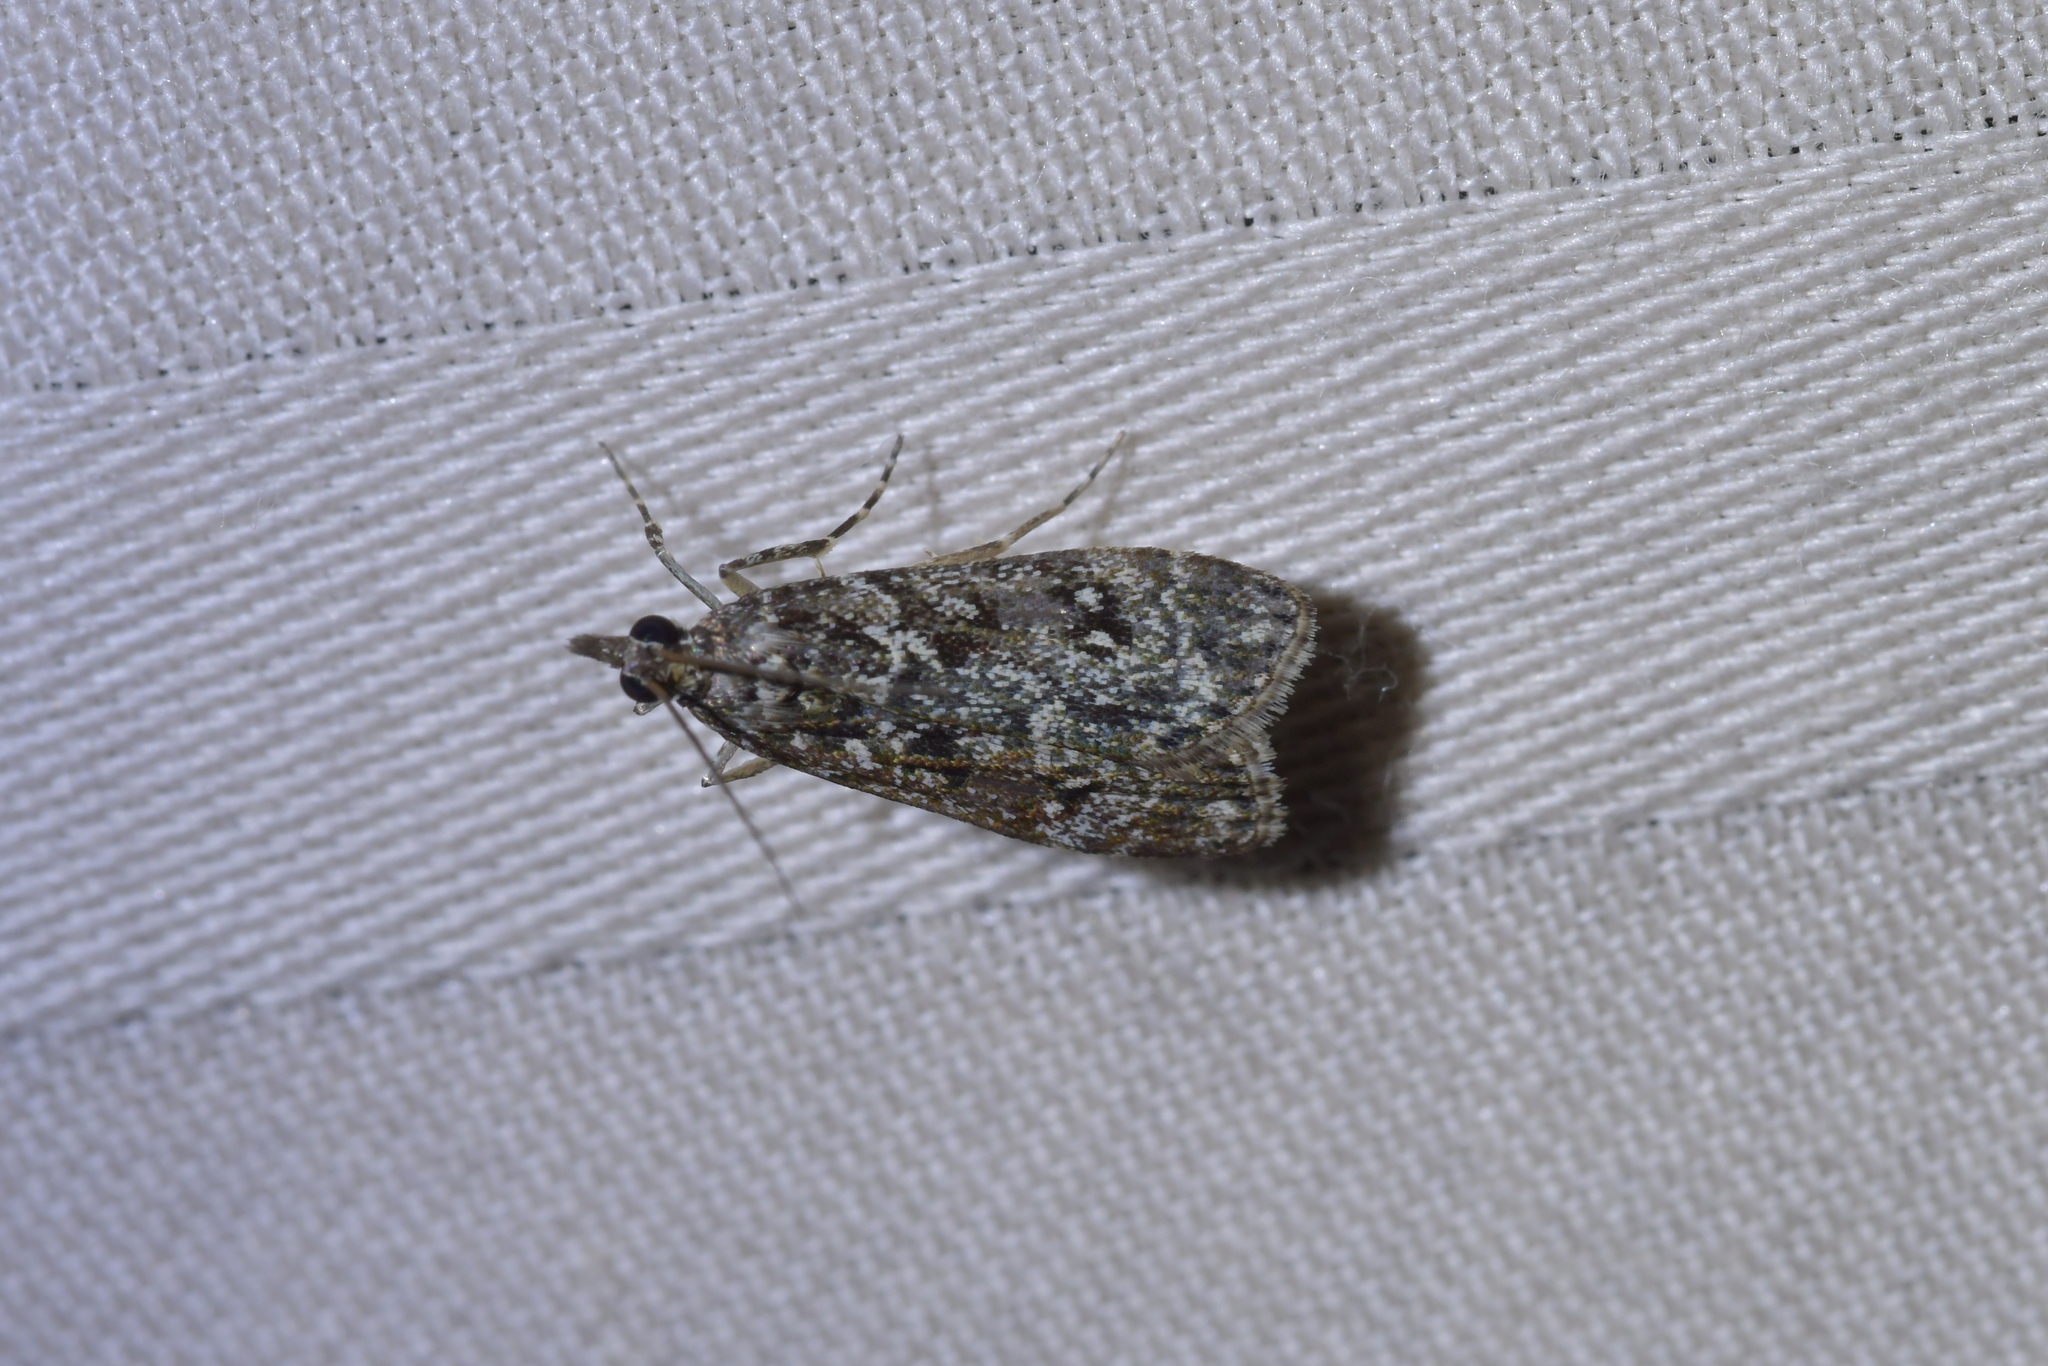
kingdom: Animalia
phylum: Arthropoda
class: Insecta
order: Lepidoptera
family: Crambidae
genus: Eudonia
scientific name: Eudonia philerga
